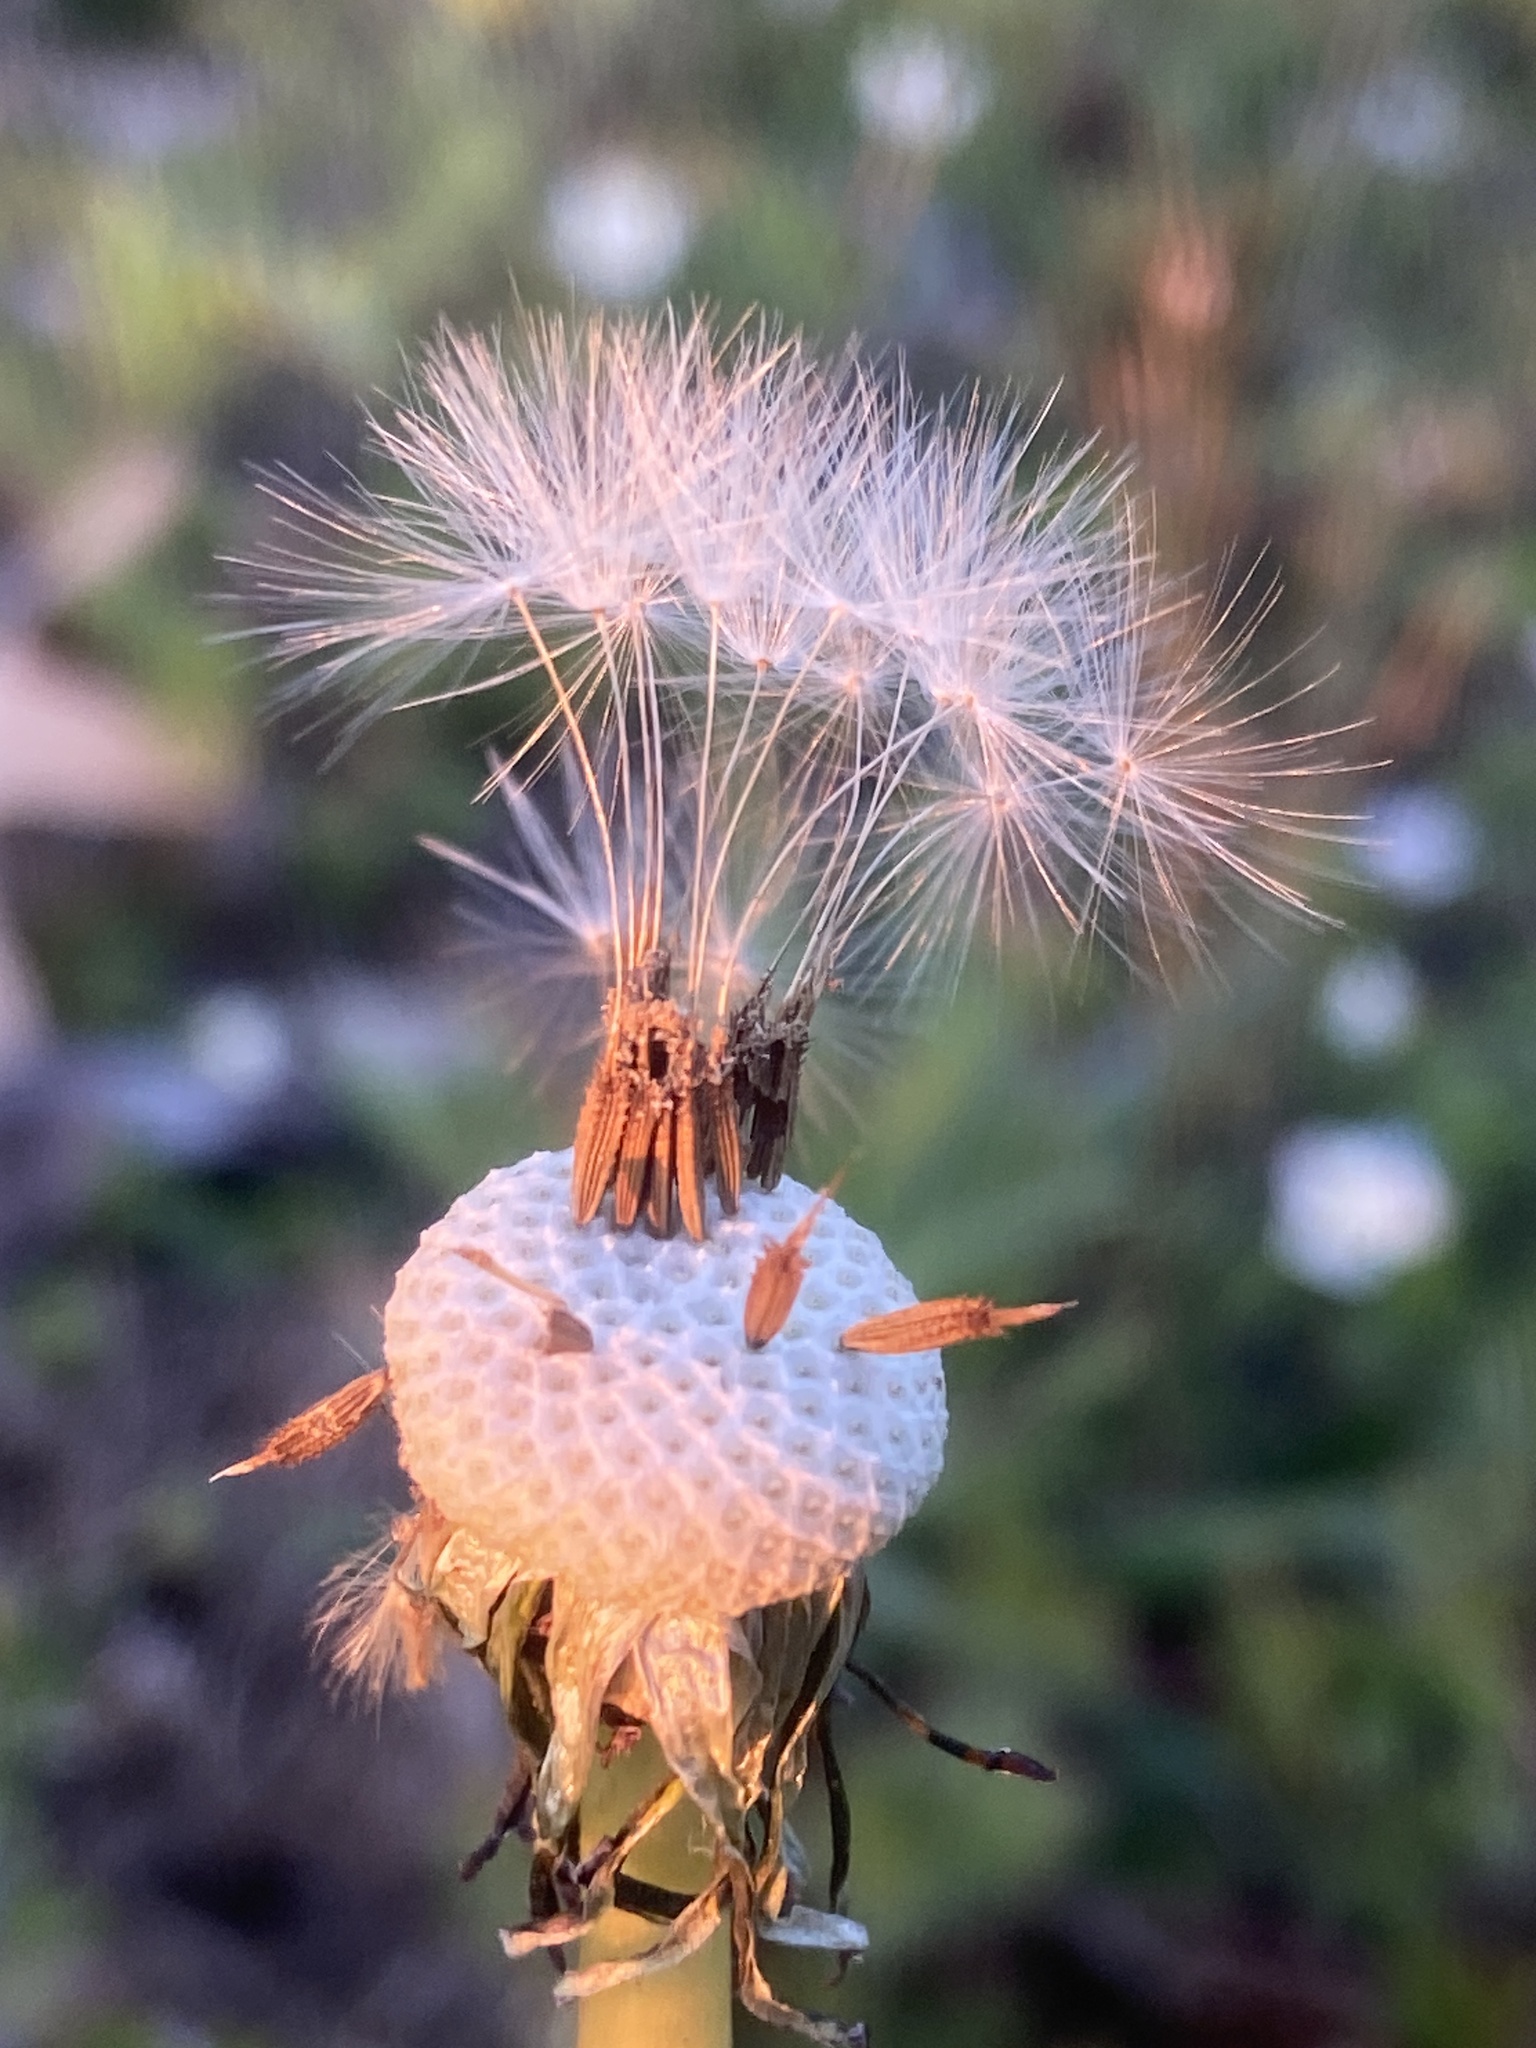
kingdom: Plantae
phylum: Tracheophyta
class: Magnoliopsida
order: Asterales
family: Asteraceae
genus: Taraxacum
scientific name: Taraxacum officinale
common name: Common dandelion
